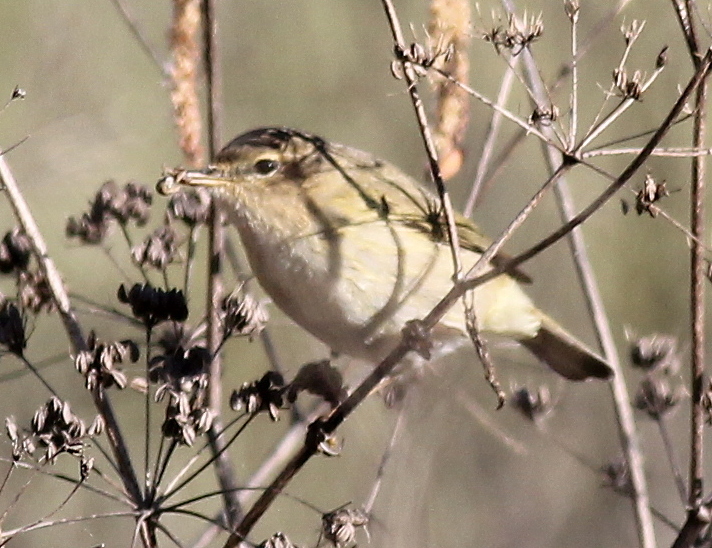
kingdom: Animalia
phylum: Chordata
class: Aves
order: Passeriformes
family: Phylloscopidae
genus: Phylloscopus
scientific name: Phylloscopus collybita
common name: Common chiffchaff
